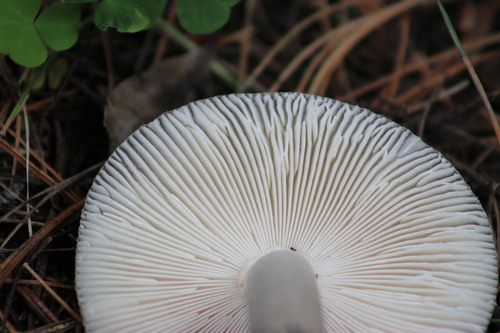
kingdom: Fungi
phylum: Basidiomycota
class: Agaricomycetes
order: Agaricales
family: Amanitaceae
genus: Amanita
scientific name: Amanita vaginata
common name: Grisette
